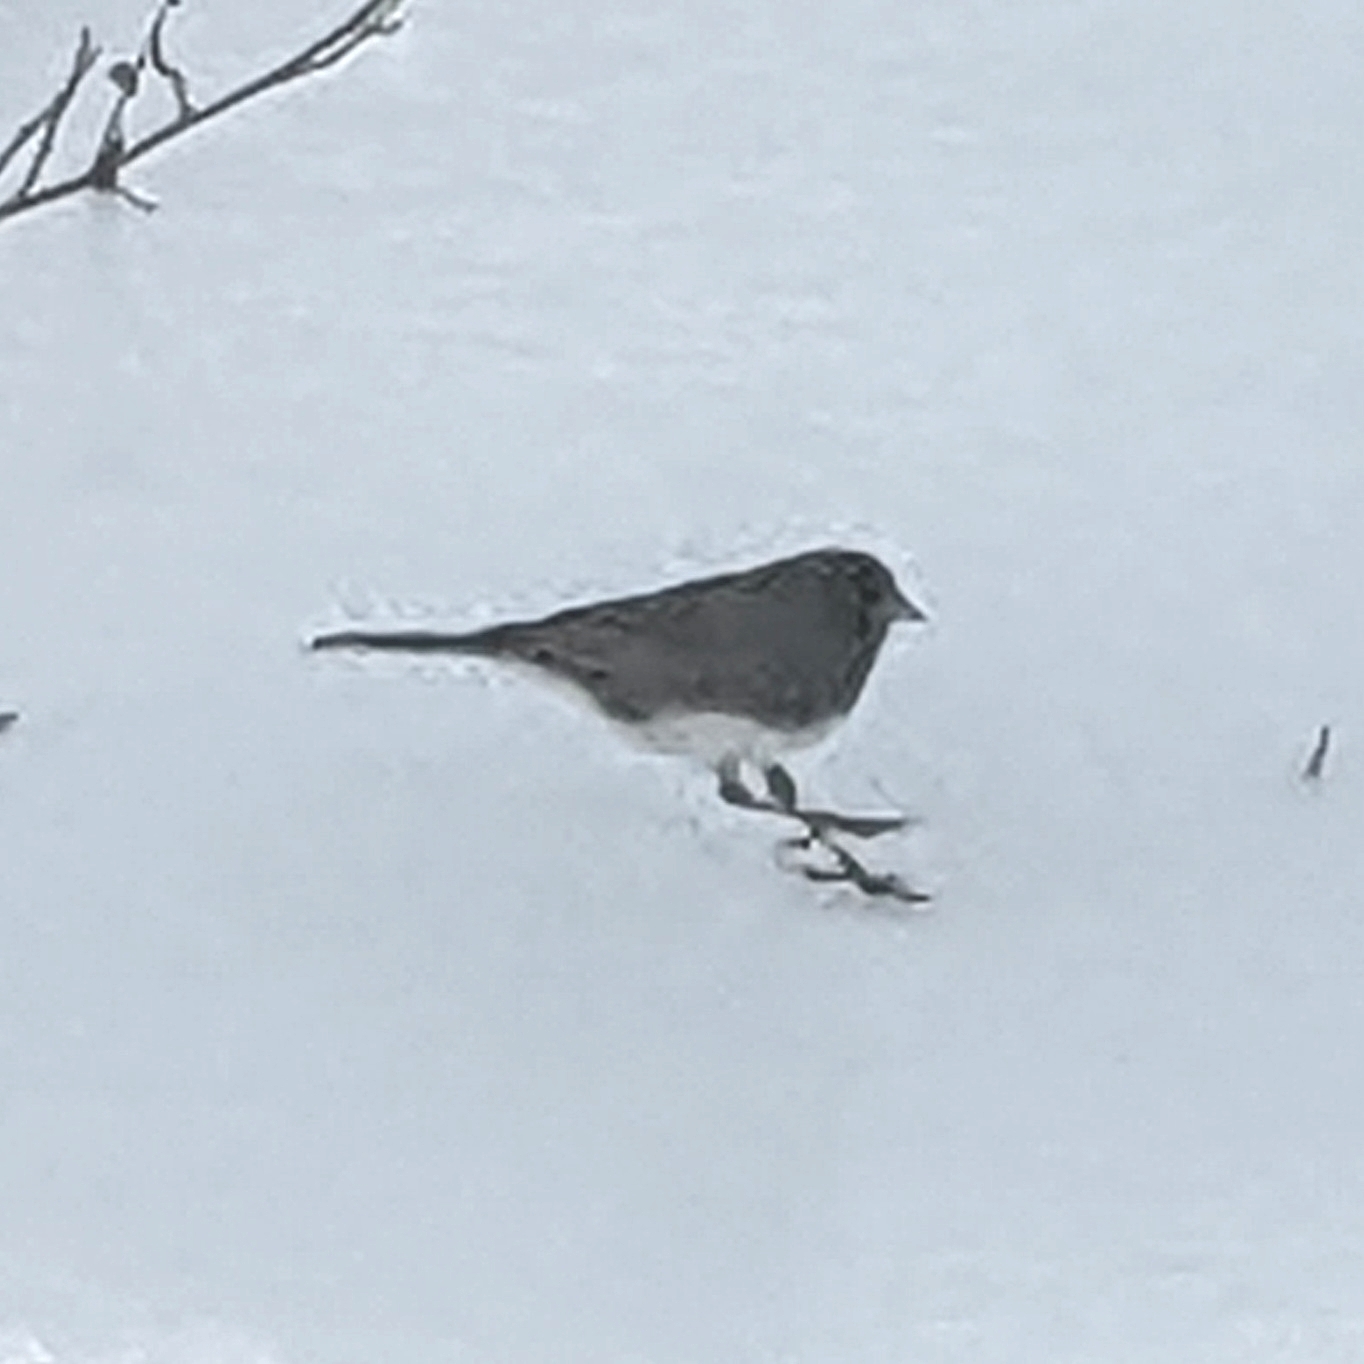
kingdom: Animalia
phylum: Chordata
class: Aves
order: Passeriformes
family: Passerellidae
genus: Junco
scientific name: Junco hyemalis
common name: Dark-eyed junco
